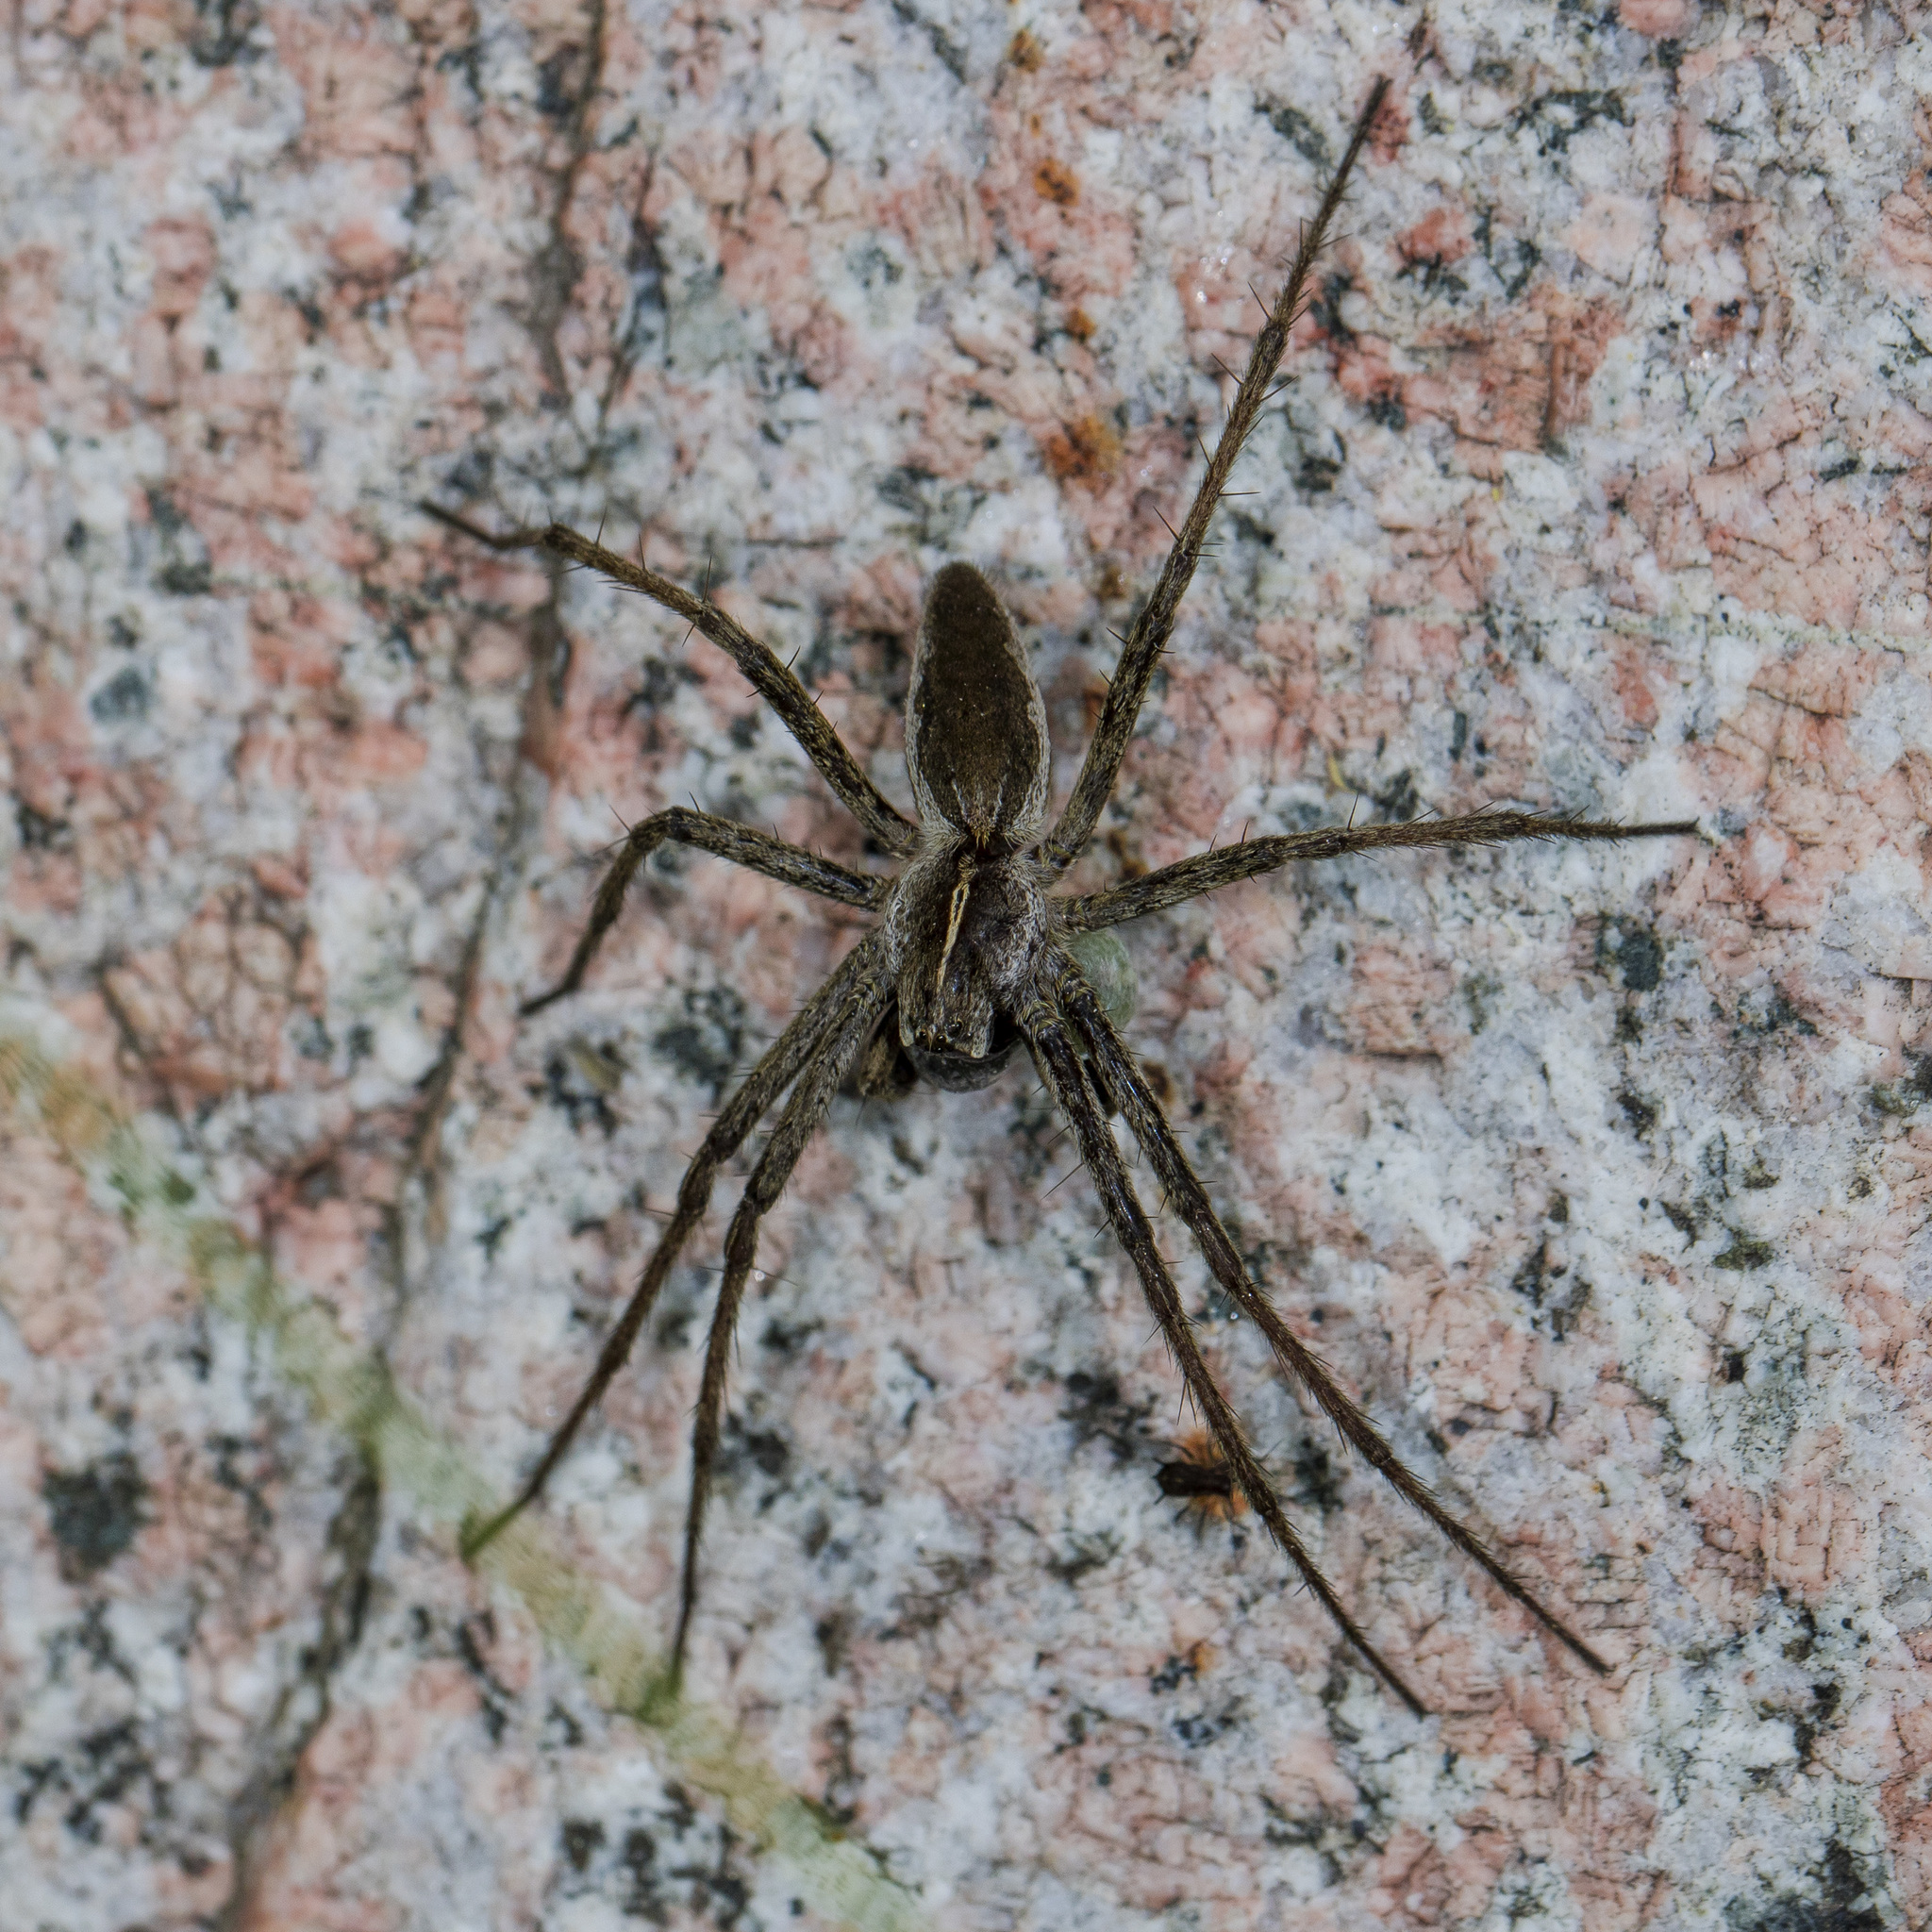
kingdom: Animalia
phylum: Arthropoda
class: Arachnida
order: Araneae
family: Pisauridae
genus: Pisaura
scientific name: Pisaura mirabilis
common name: Tent spider
